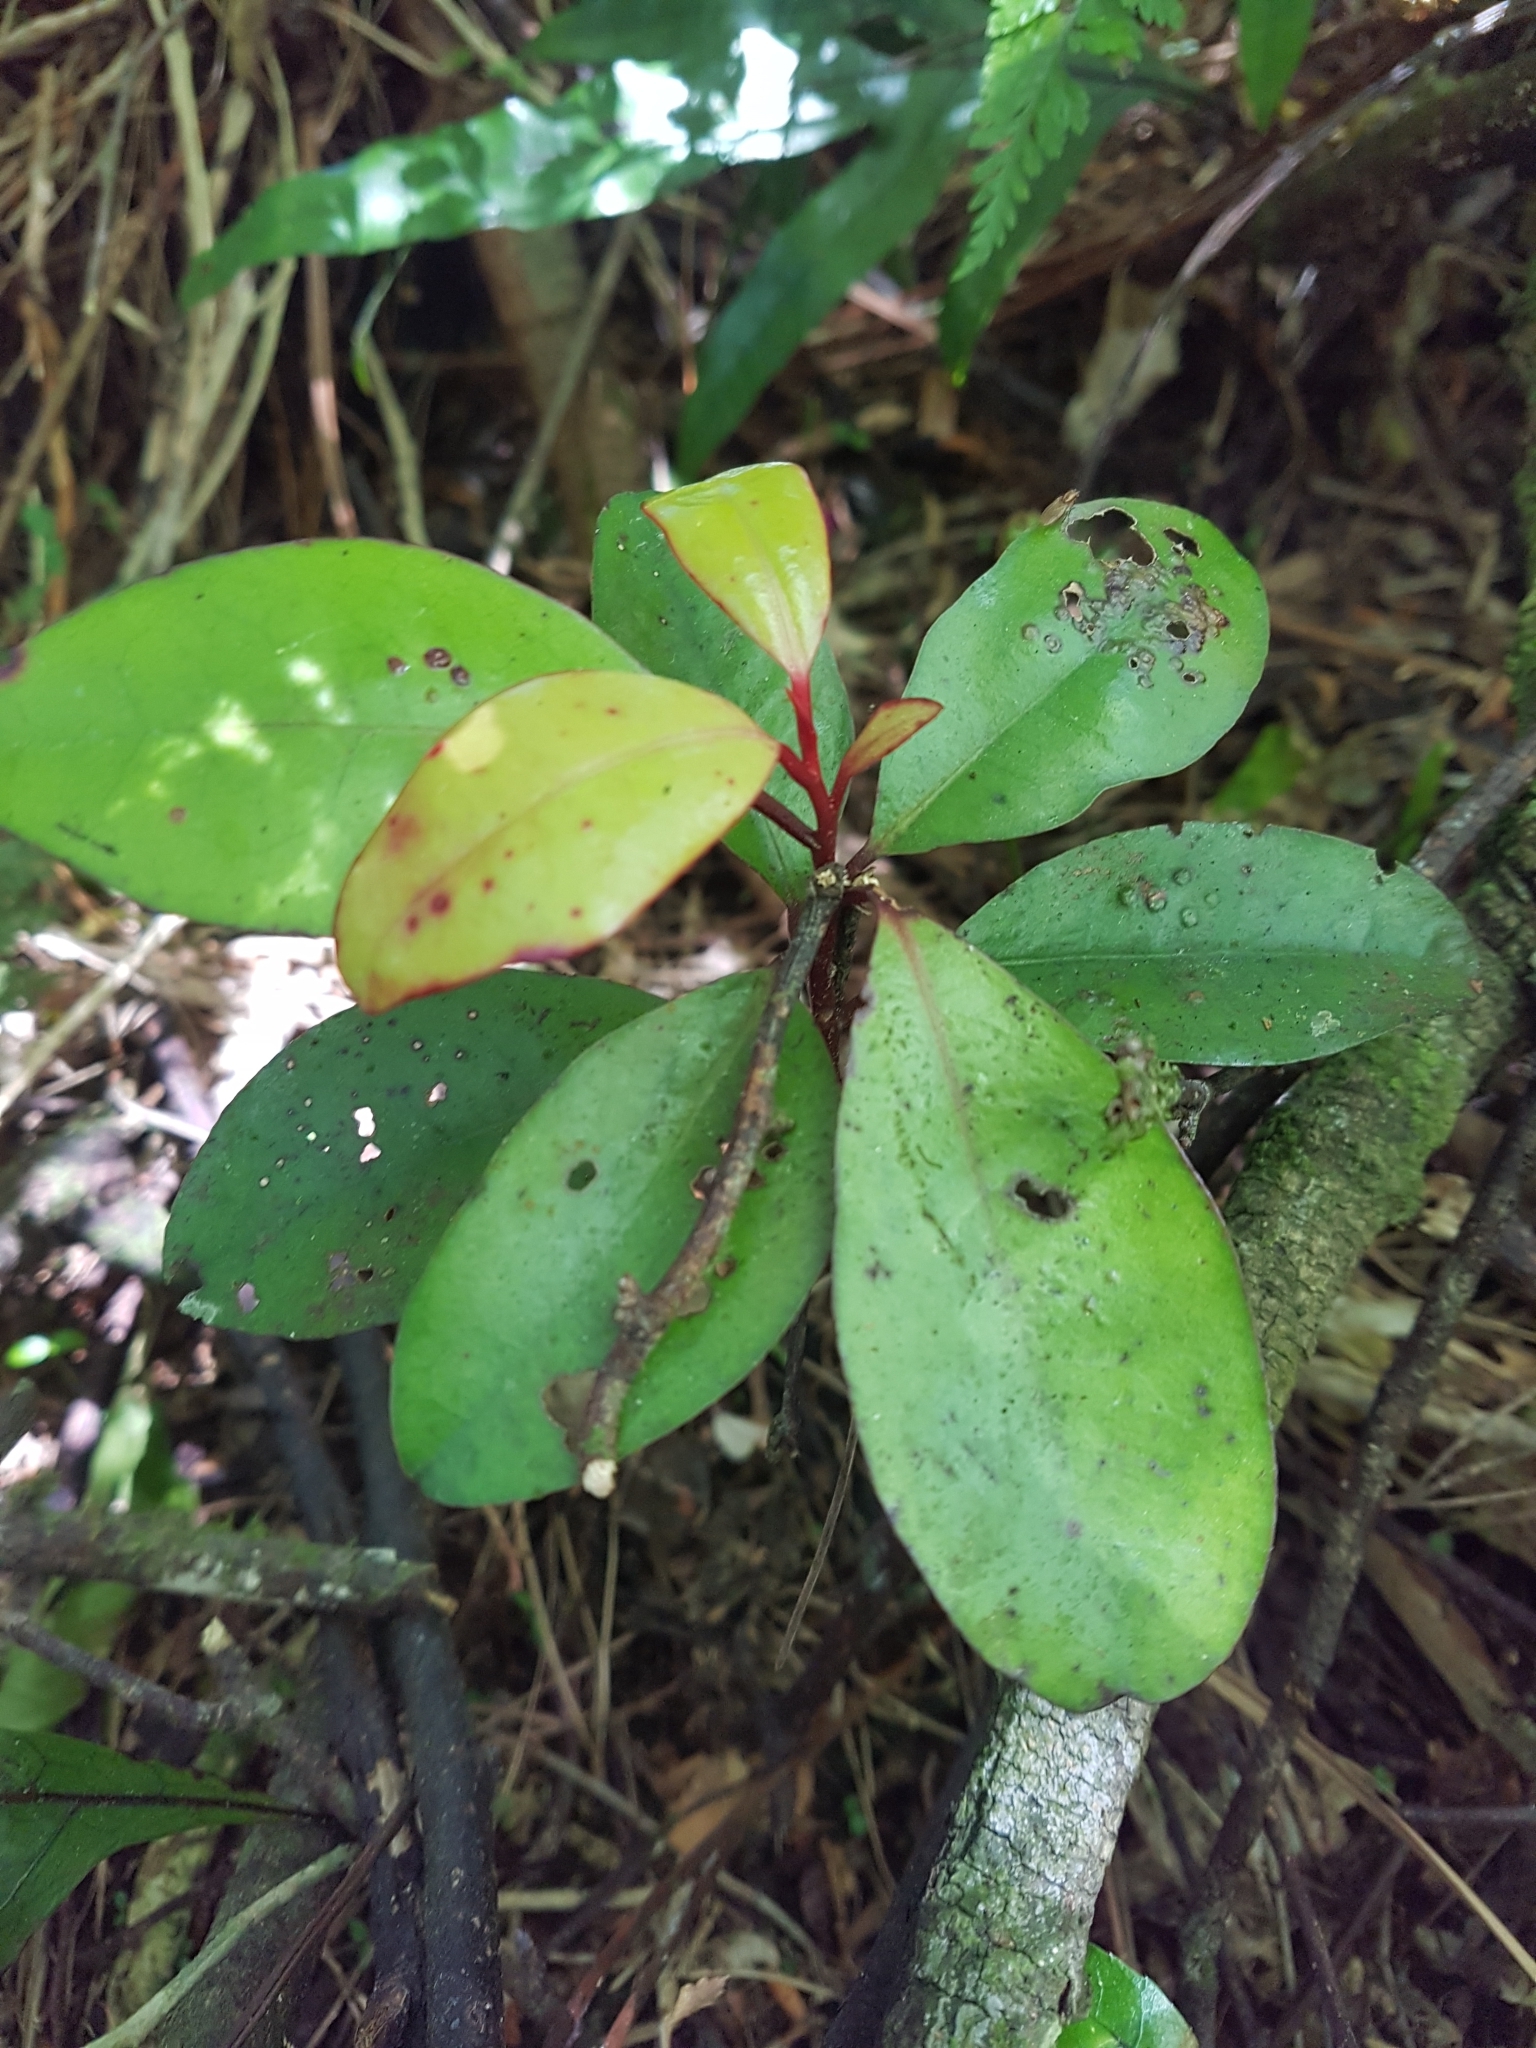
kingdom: Plantae
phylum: Tracheophyta
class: Magnoliopsida
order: Canellales
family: Winteraceae
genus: Pseudowintera
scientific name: Pseudowintera colorata
